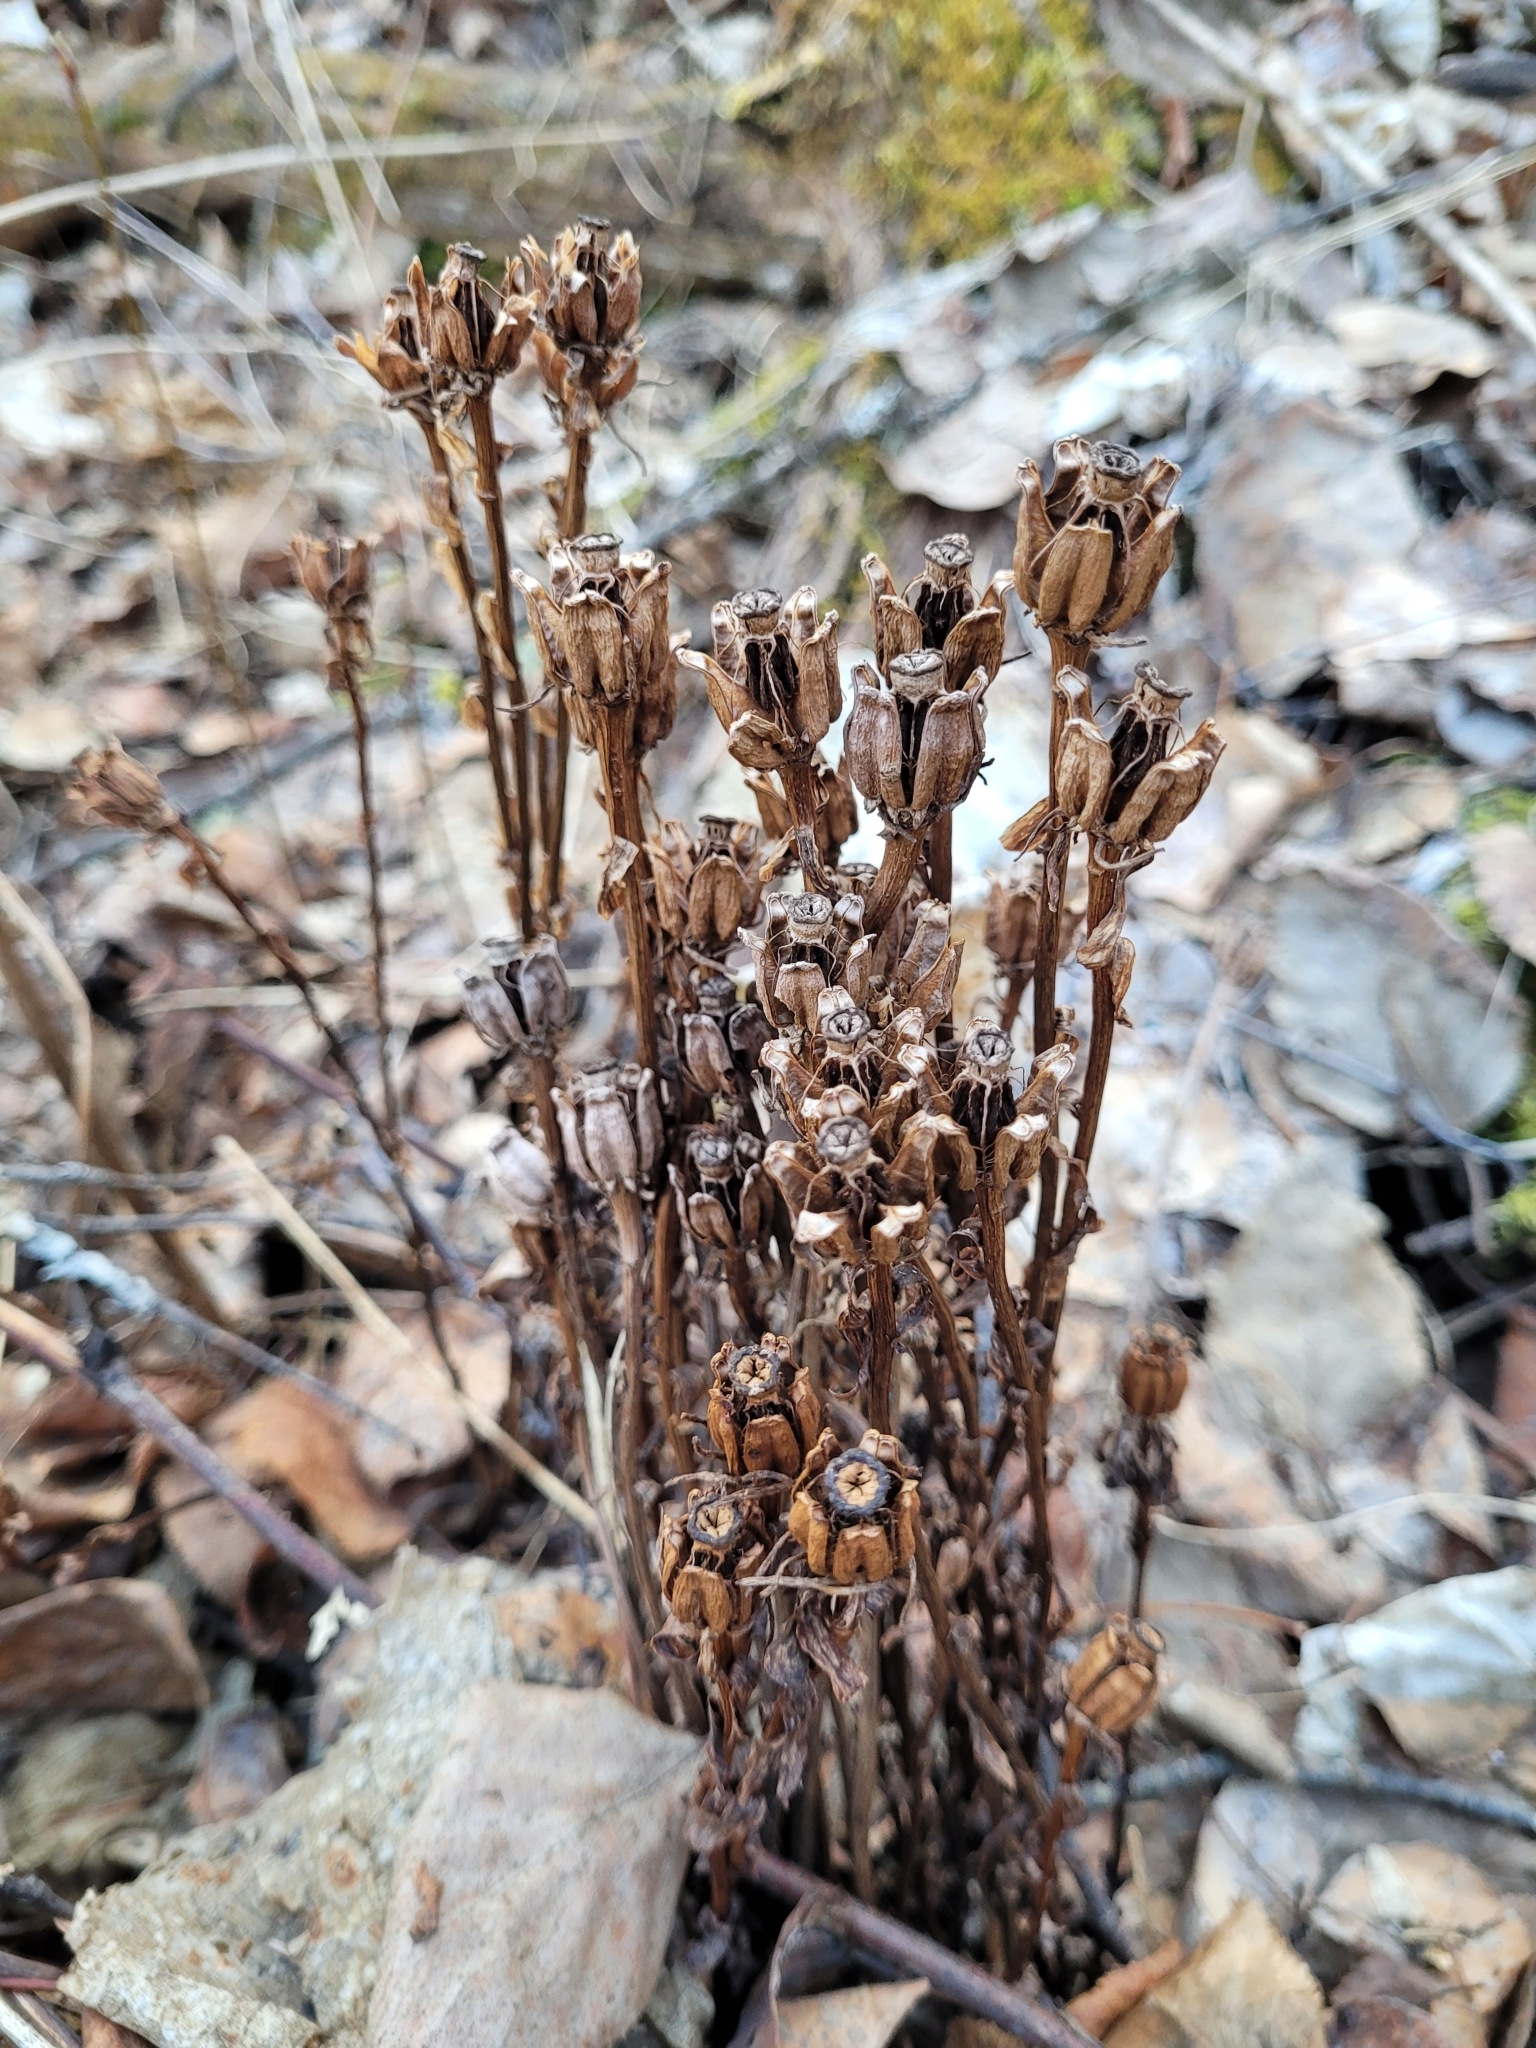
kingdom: Plantae
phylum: Tracheophyta
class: Magnoliopsida
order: Ericales
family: Ericaceae
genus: Monotropa
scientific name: Monotropa uniflora
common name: Convulsion root
